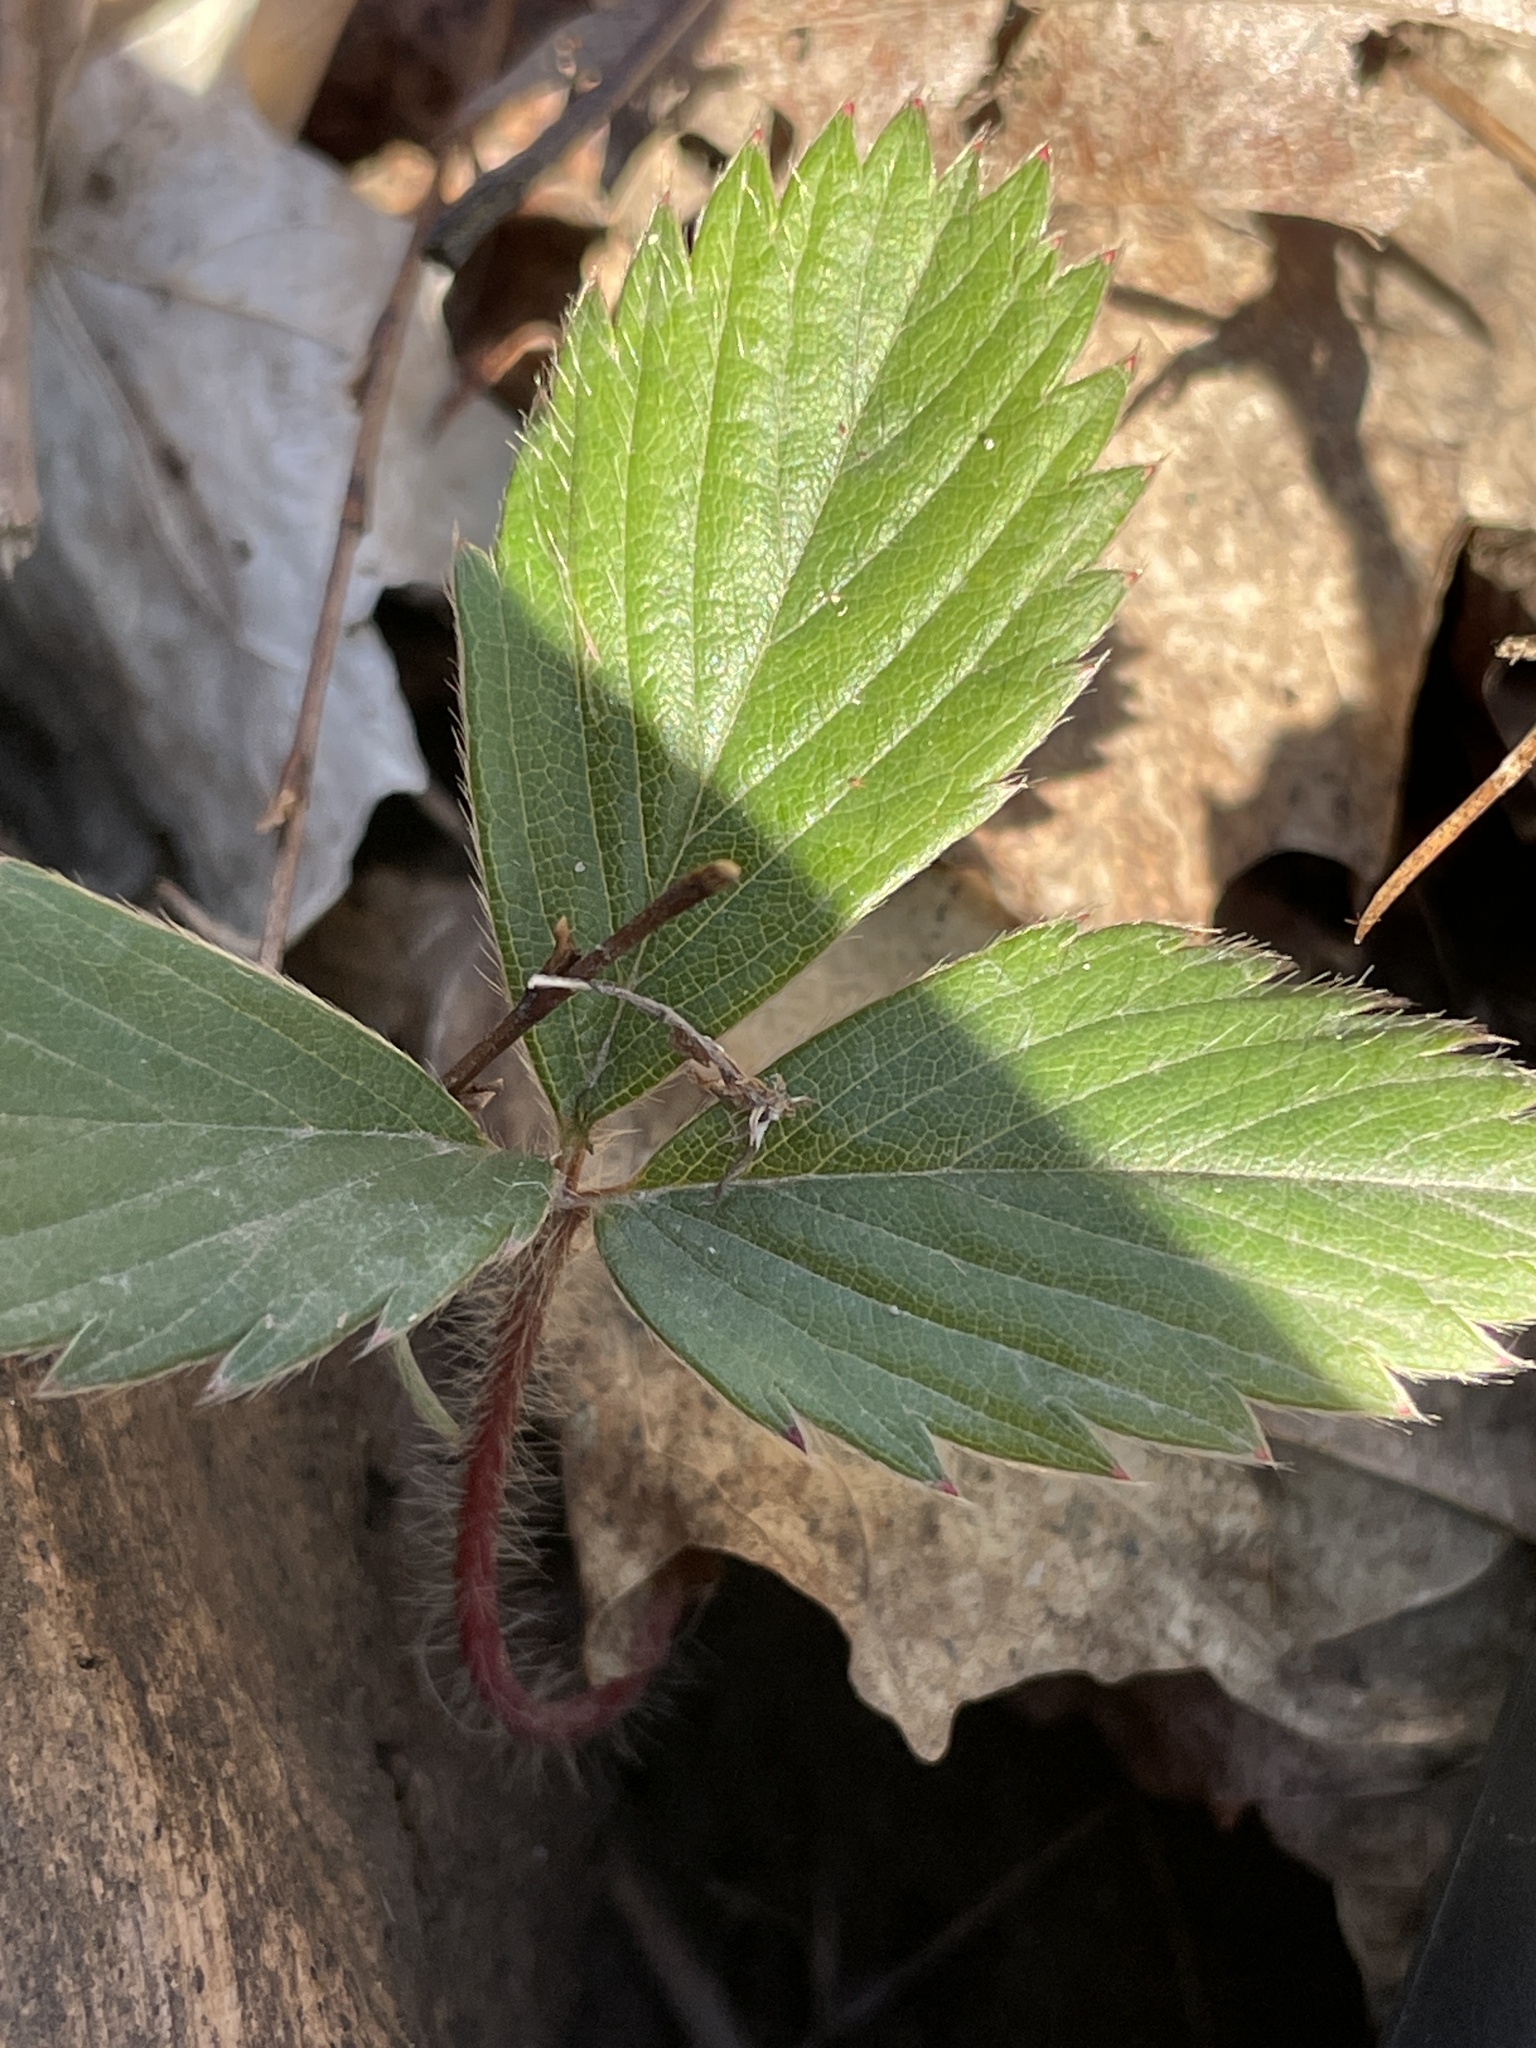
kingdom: Plantae
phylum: Tracheophyta
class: Magnoliopsida
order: Rosales
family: Rosaceae
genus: Fragaria
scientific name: Fragaria virginiana
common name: Thickleaved wild strawberry
